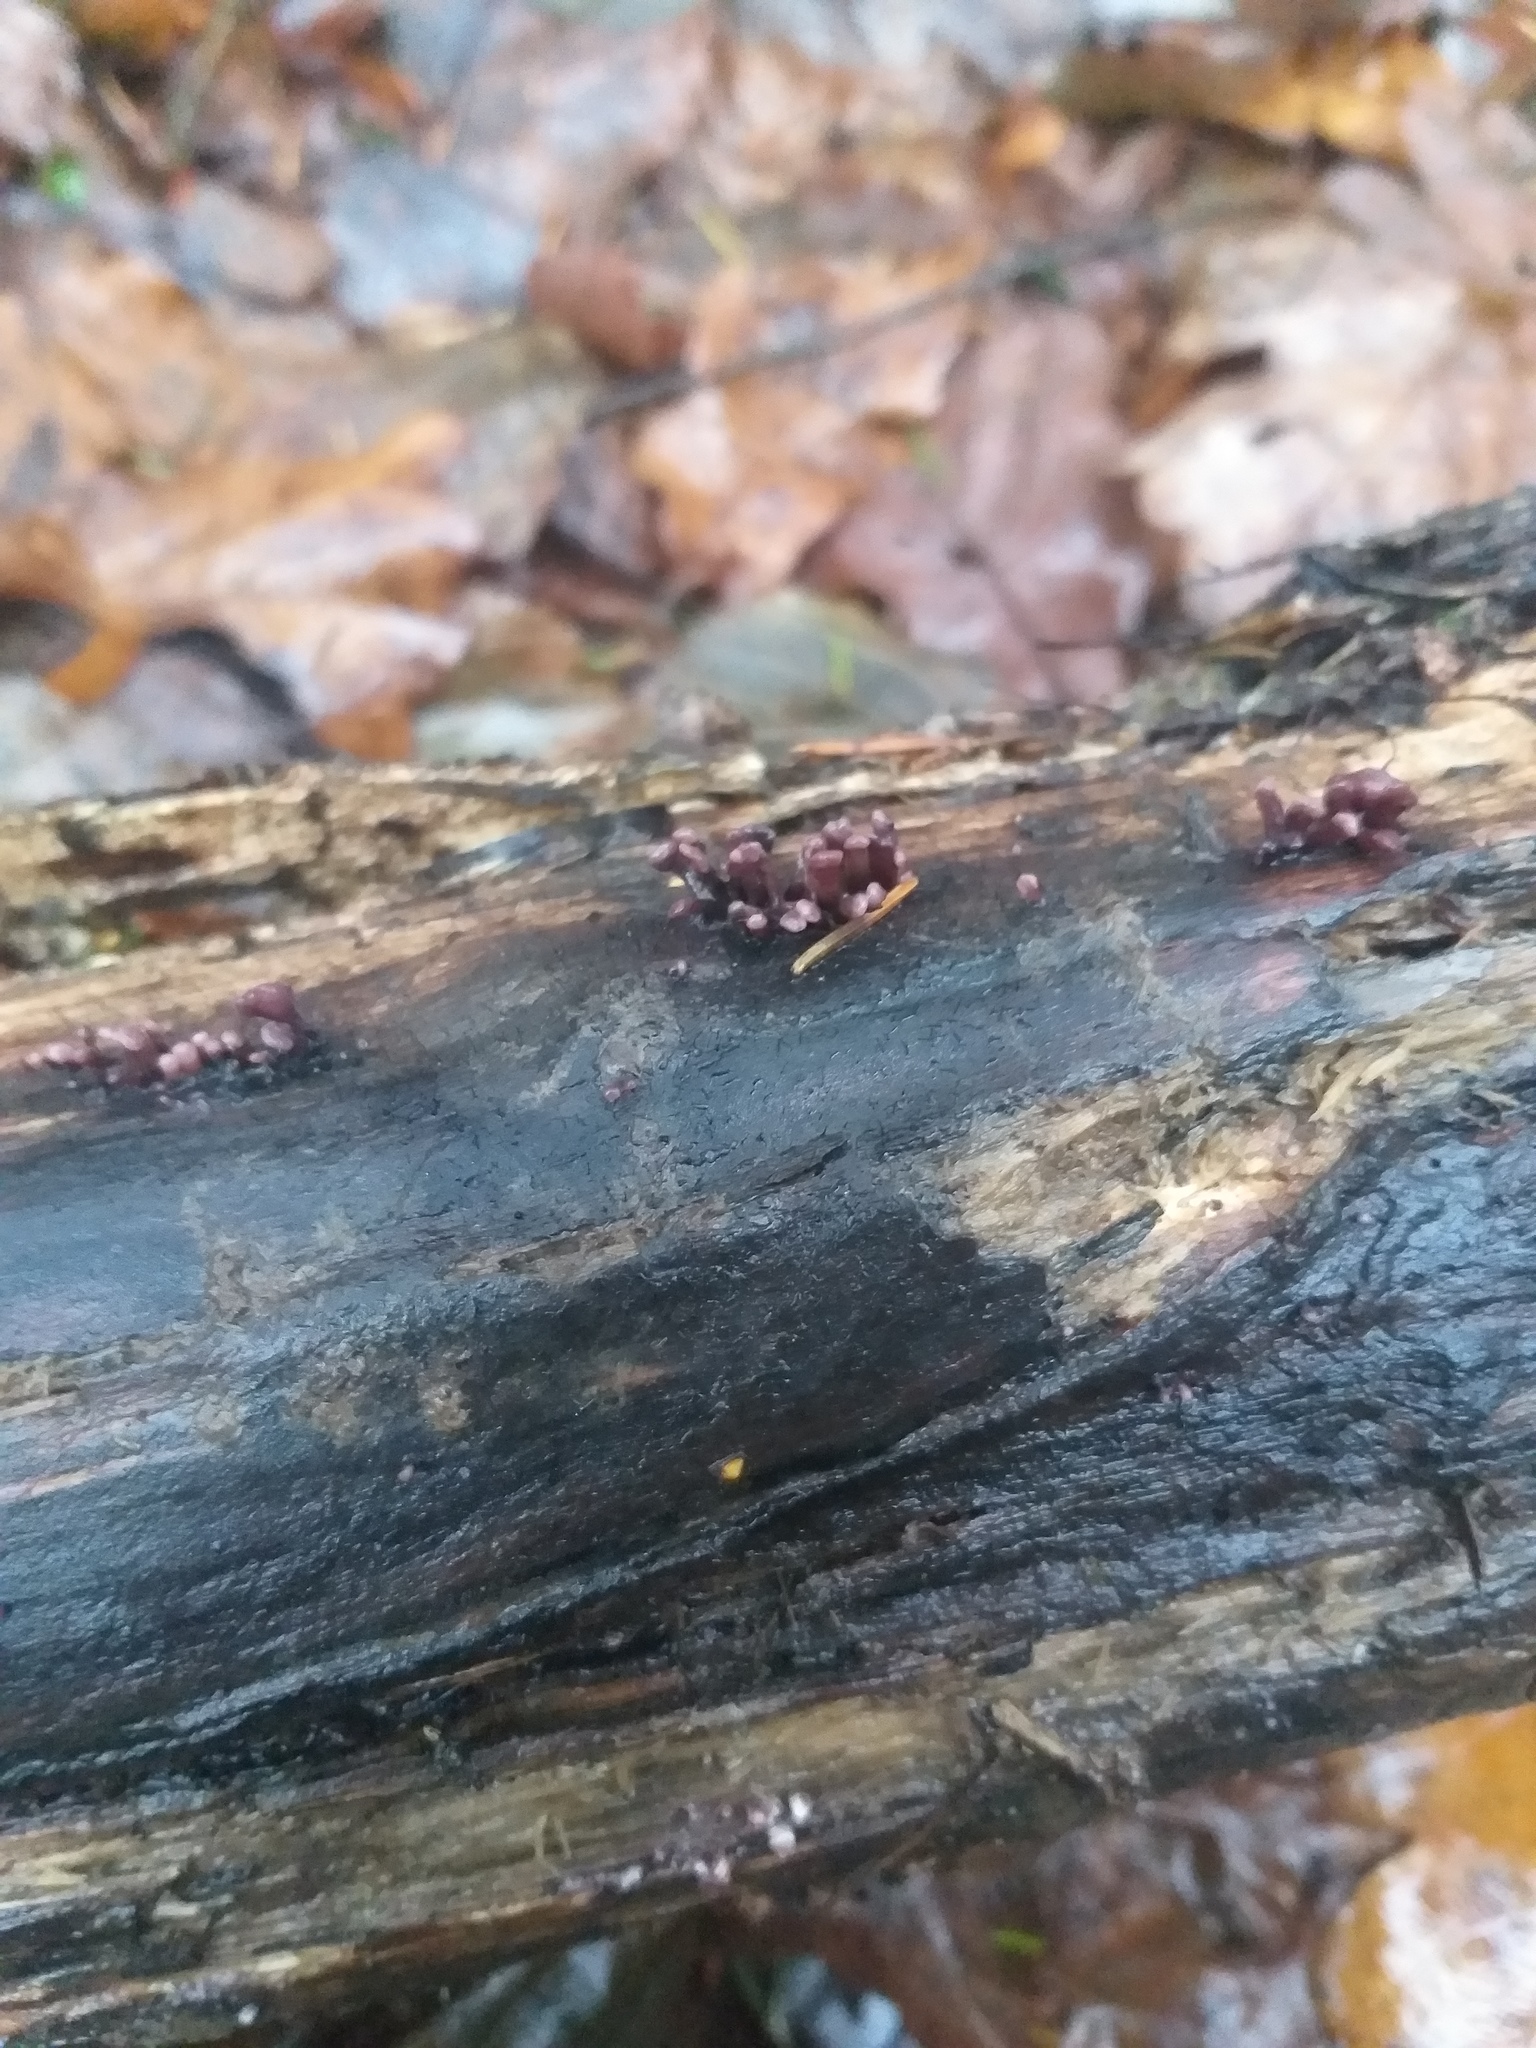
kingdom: Fungi
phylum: Ascomycota
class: Leotiomycetes
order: Helotiales
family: Gelatinodiscaceae
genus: Ascocoryne
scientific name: Ascocoryne sarcoides
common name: Purple jellydisc
